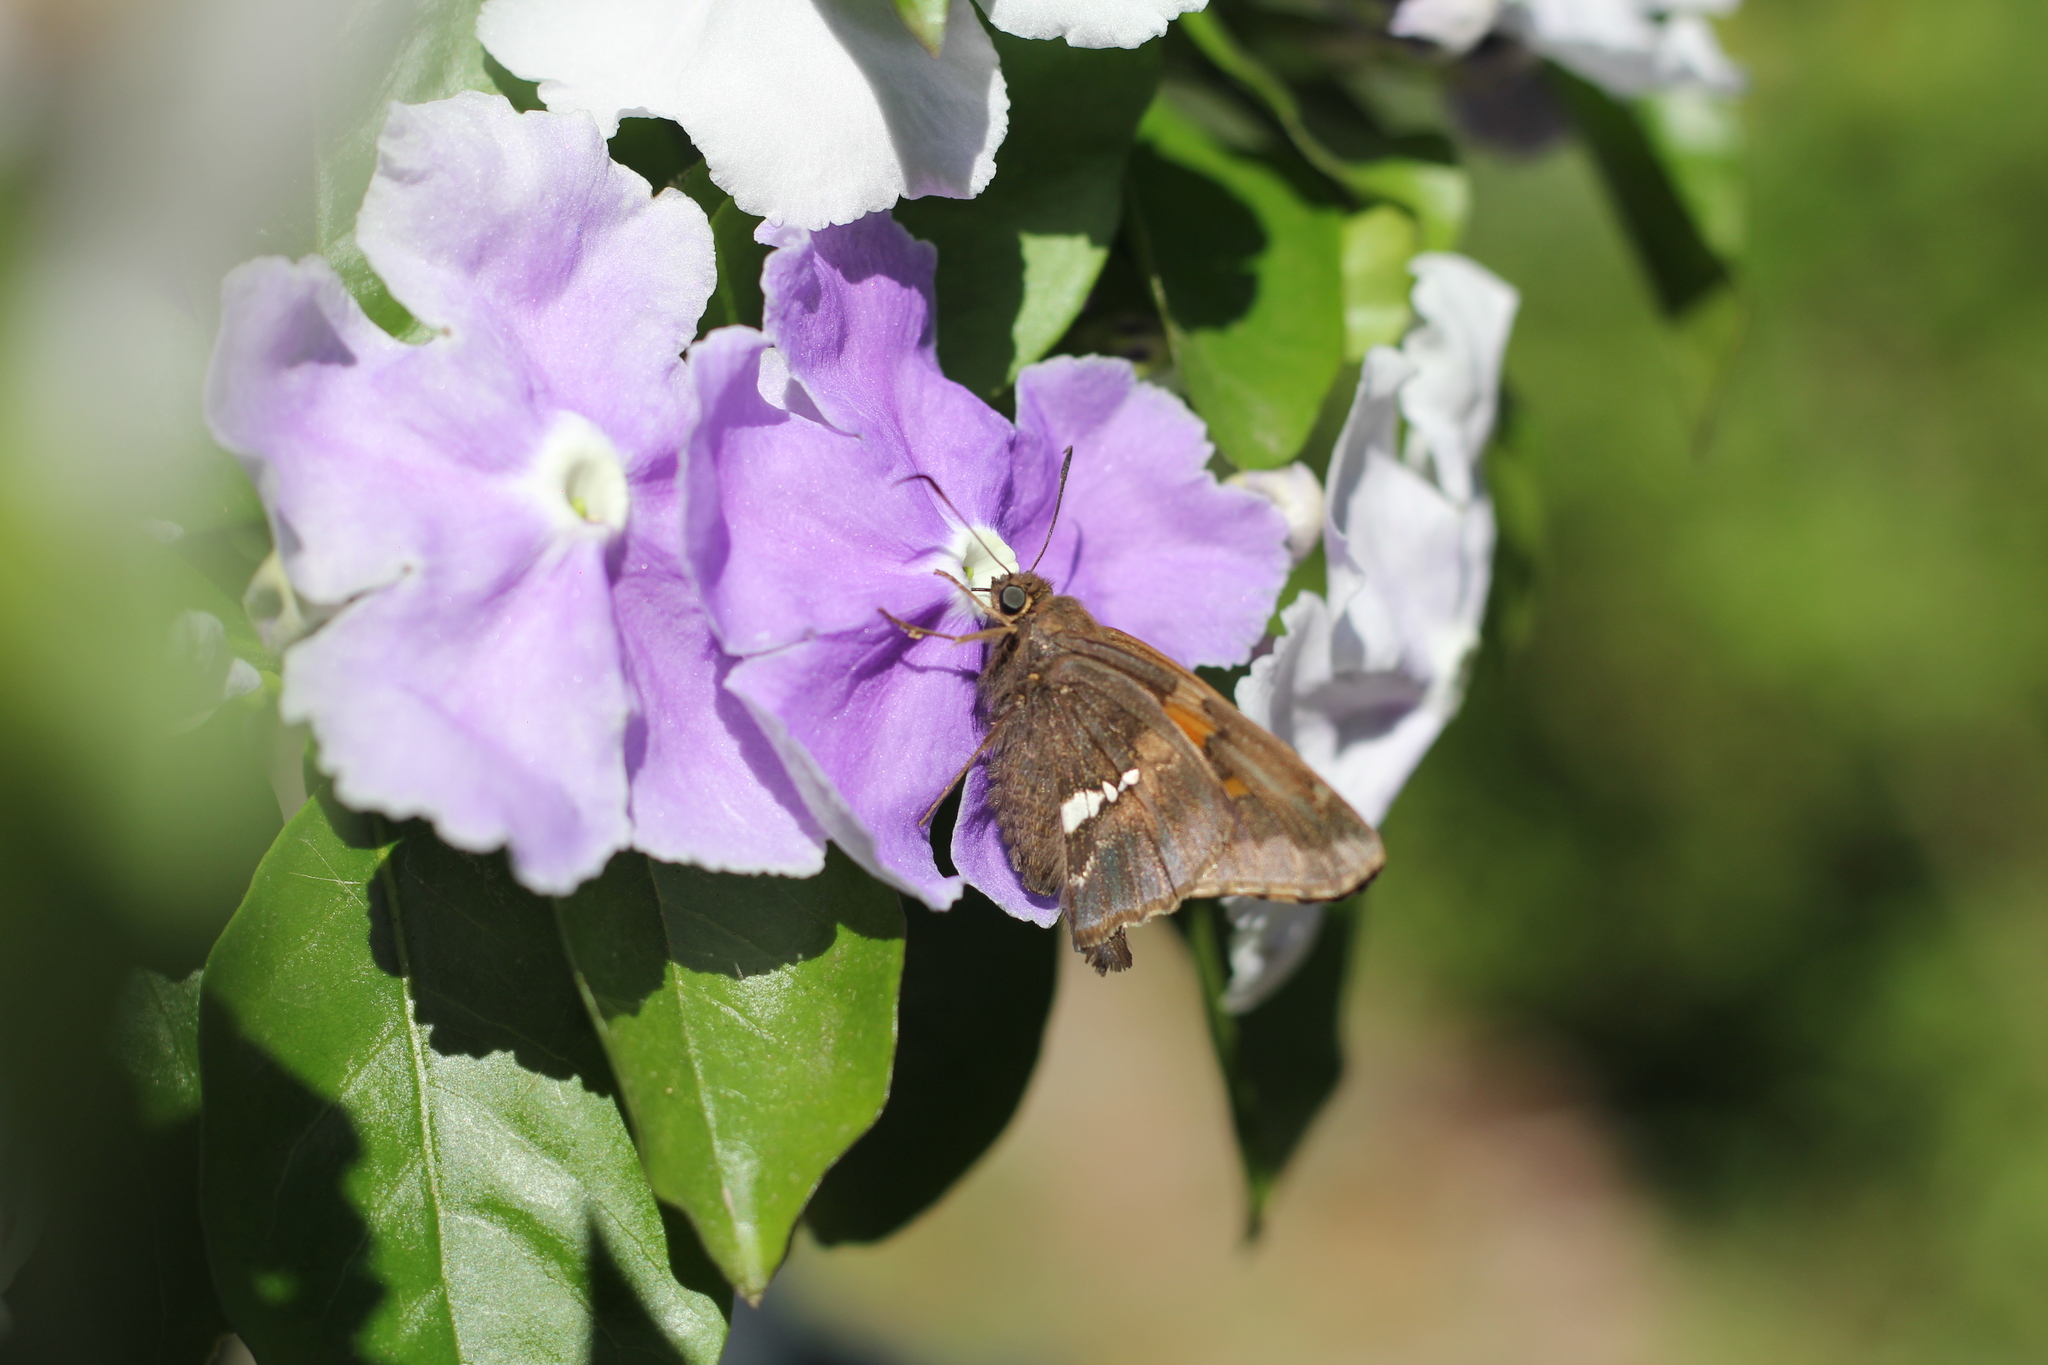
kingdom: Animalia
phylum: Arthropoda
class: Insecta
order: Lepidoptera
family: Hesperiidae
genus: Epargyreus
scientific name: Epargyreus tmolis
